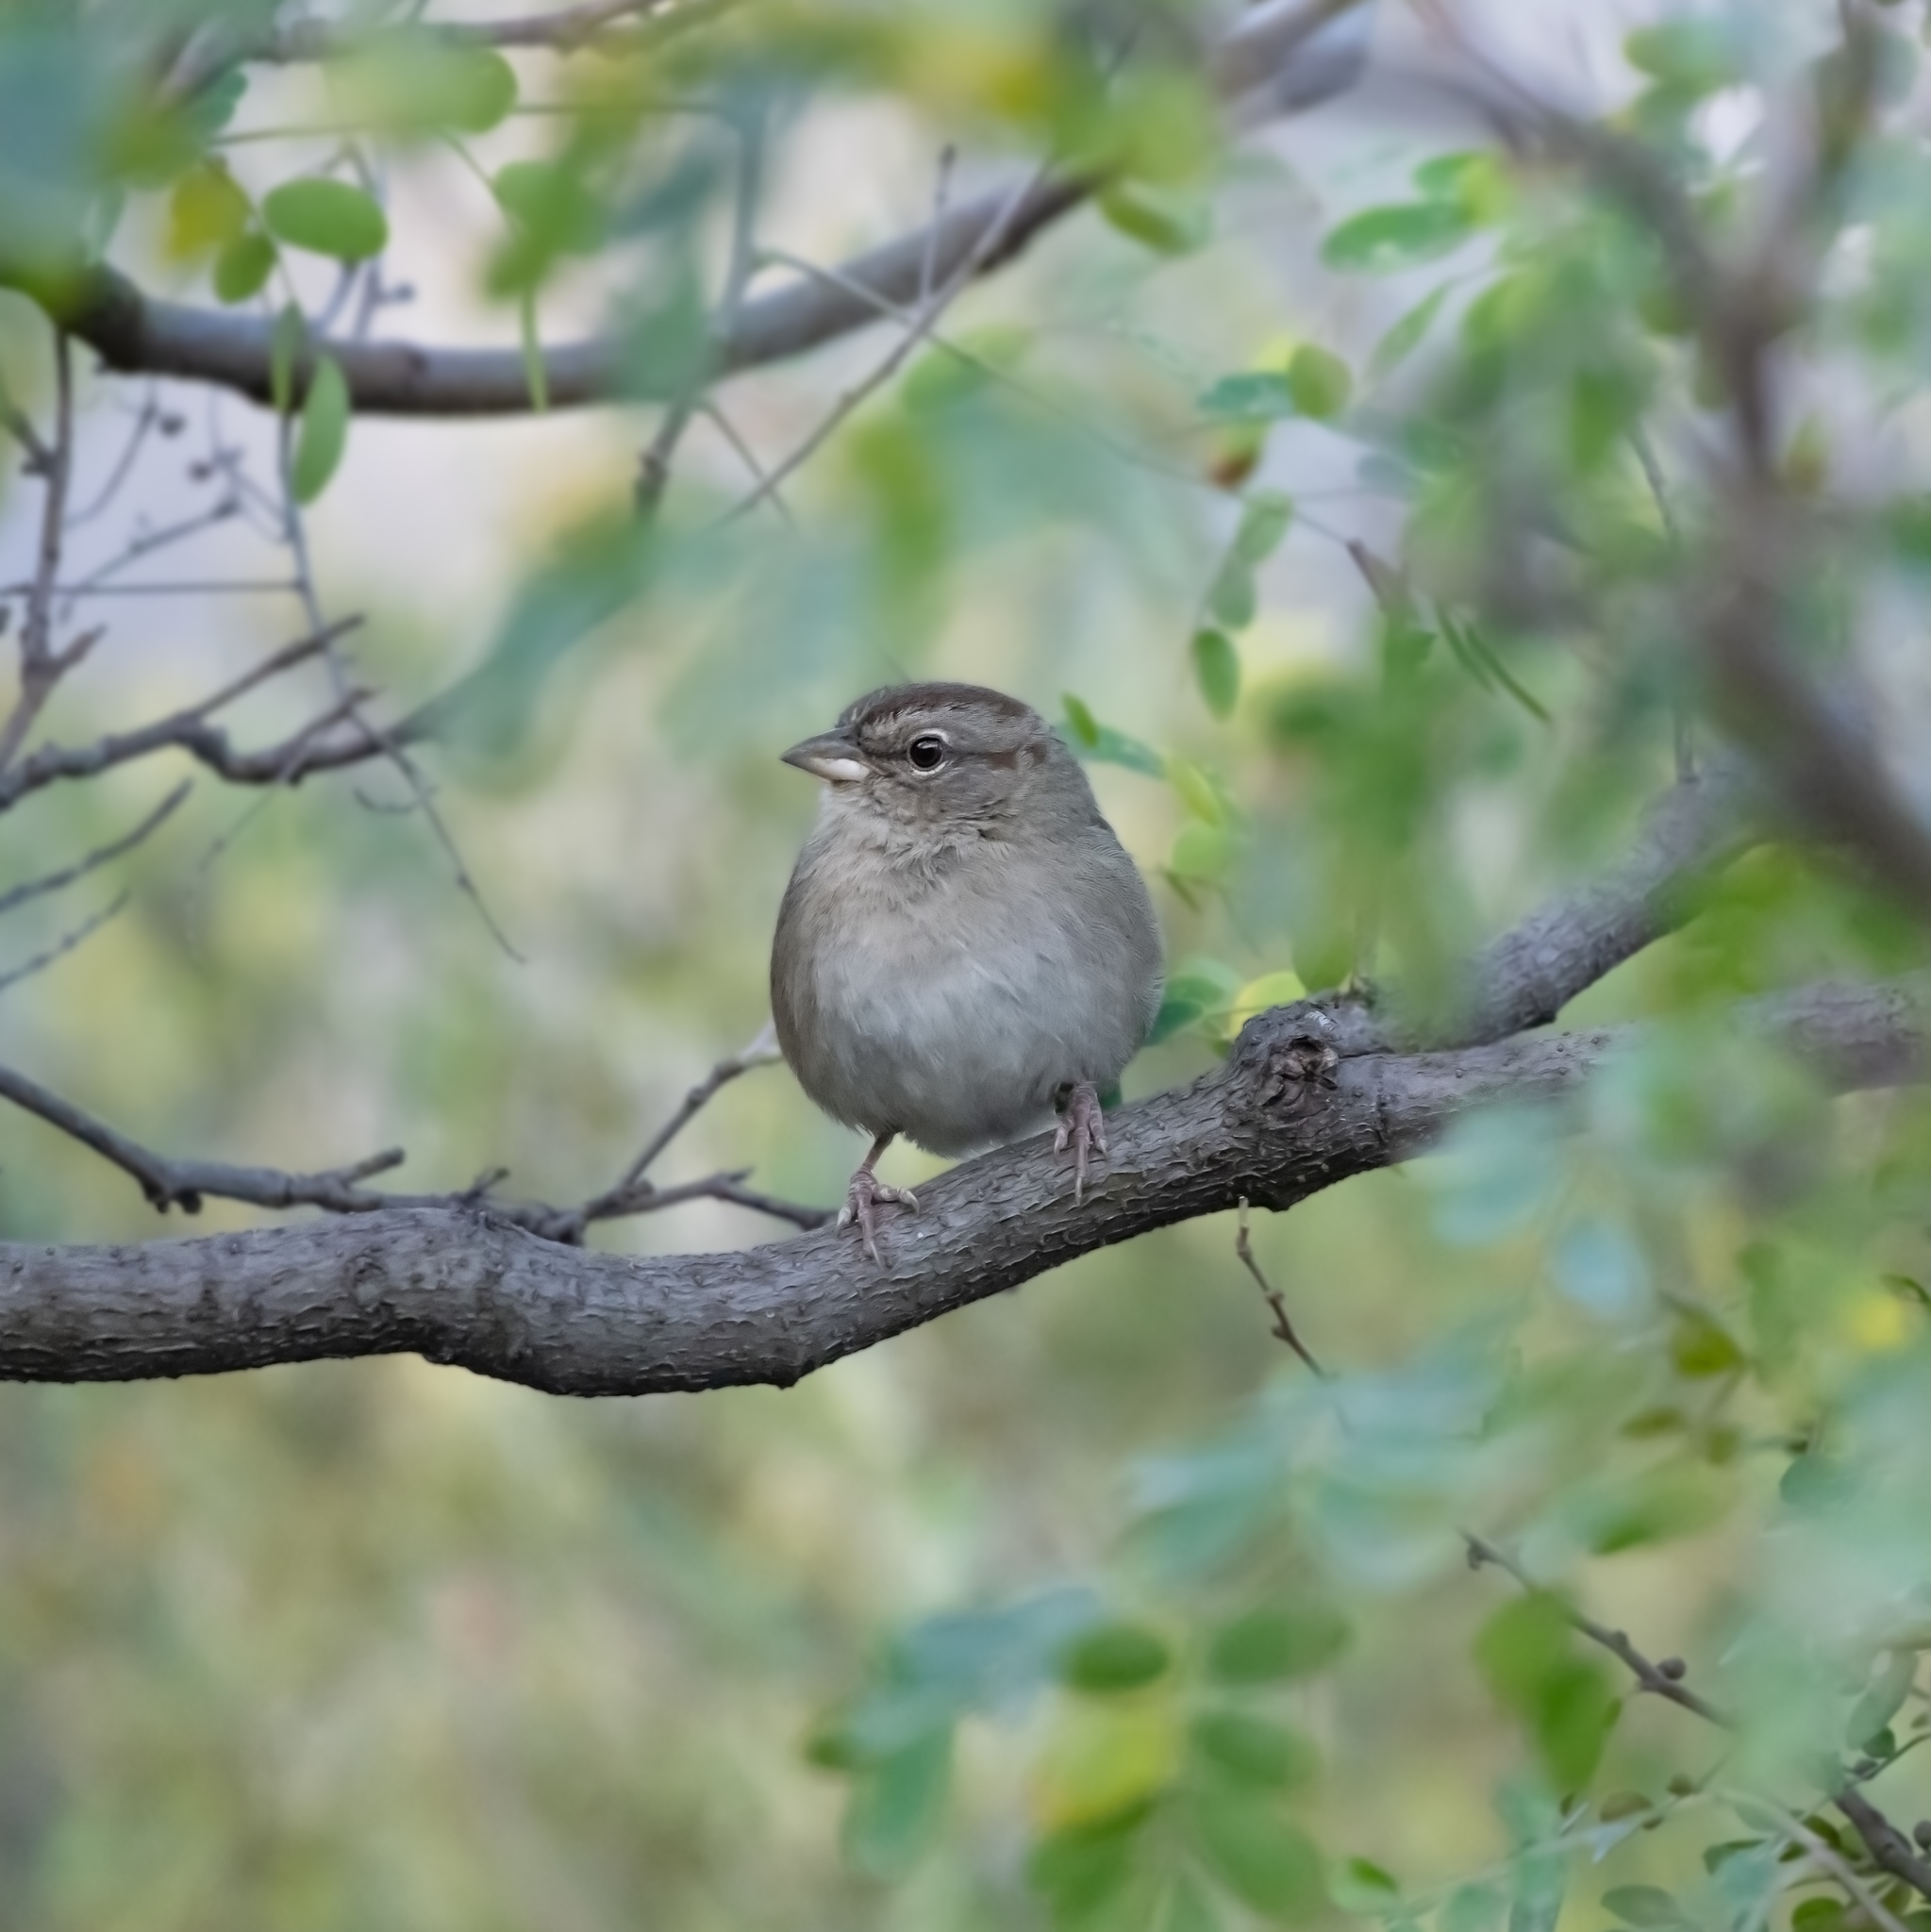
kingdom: Animalia
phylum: Chordata
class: Aves
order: Passeriformes
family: Passerellidae
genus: Arremonops
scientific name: Arremonops rufivirgatus
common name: Olive sparrow
